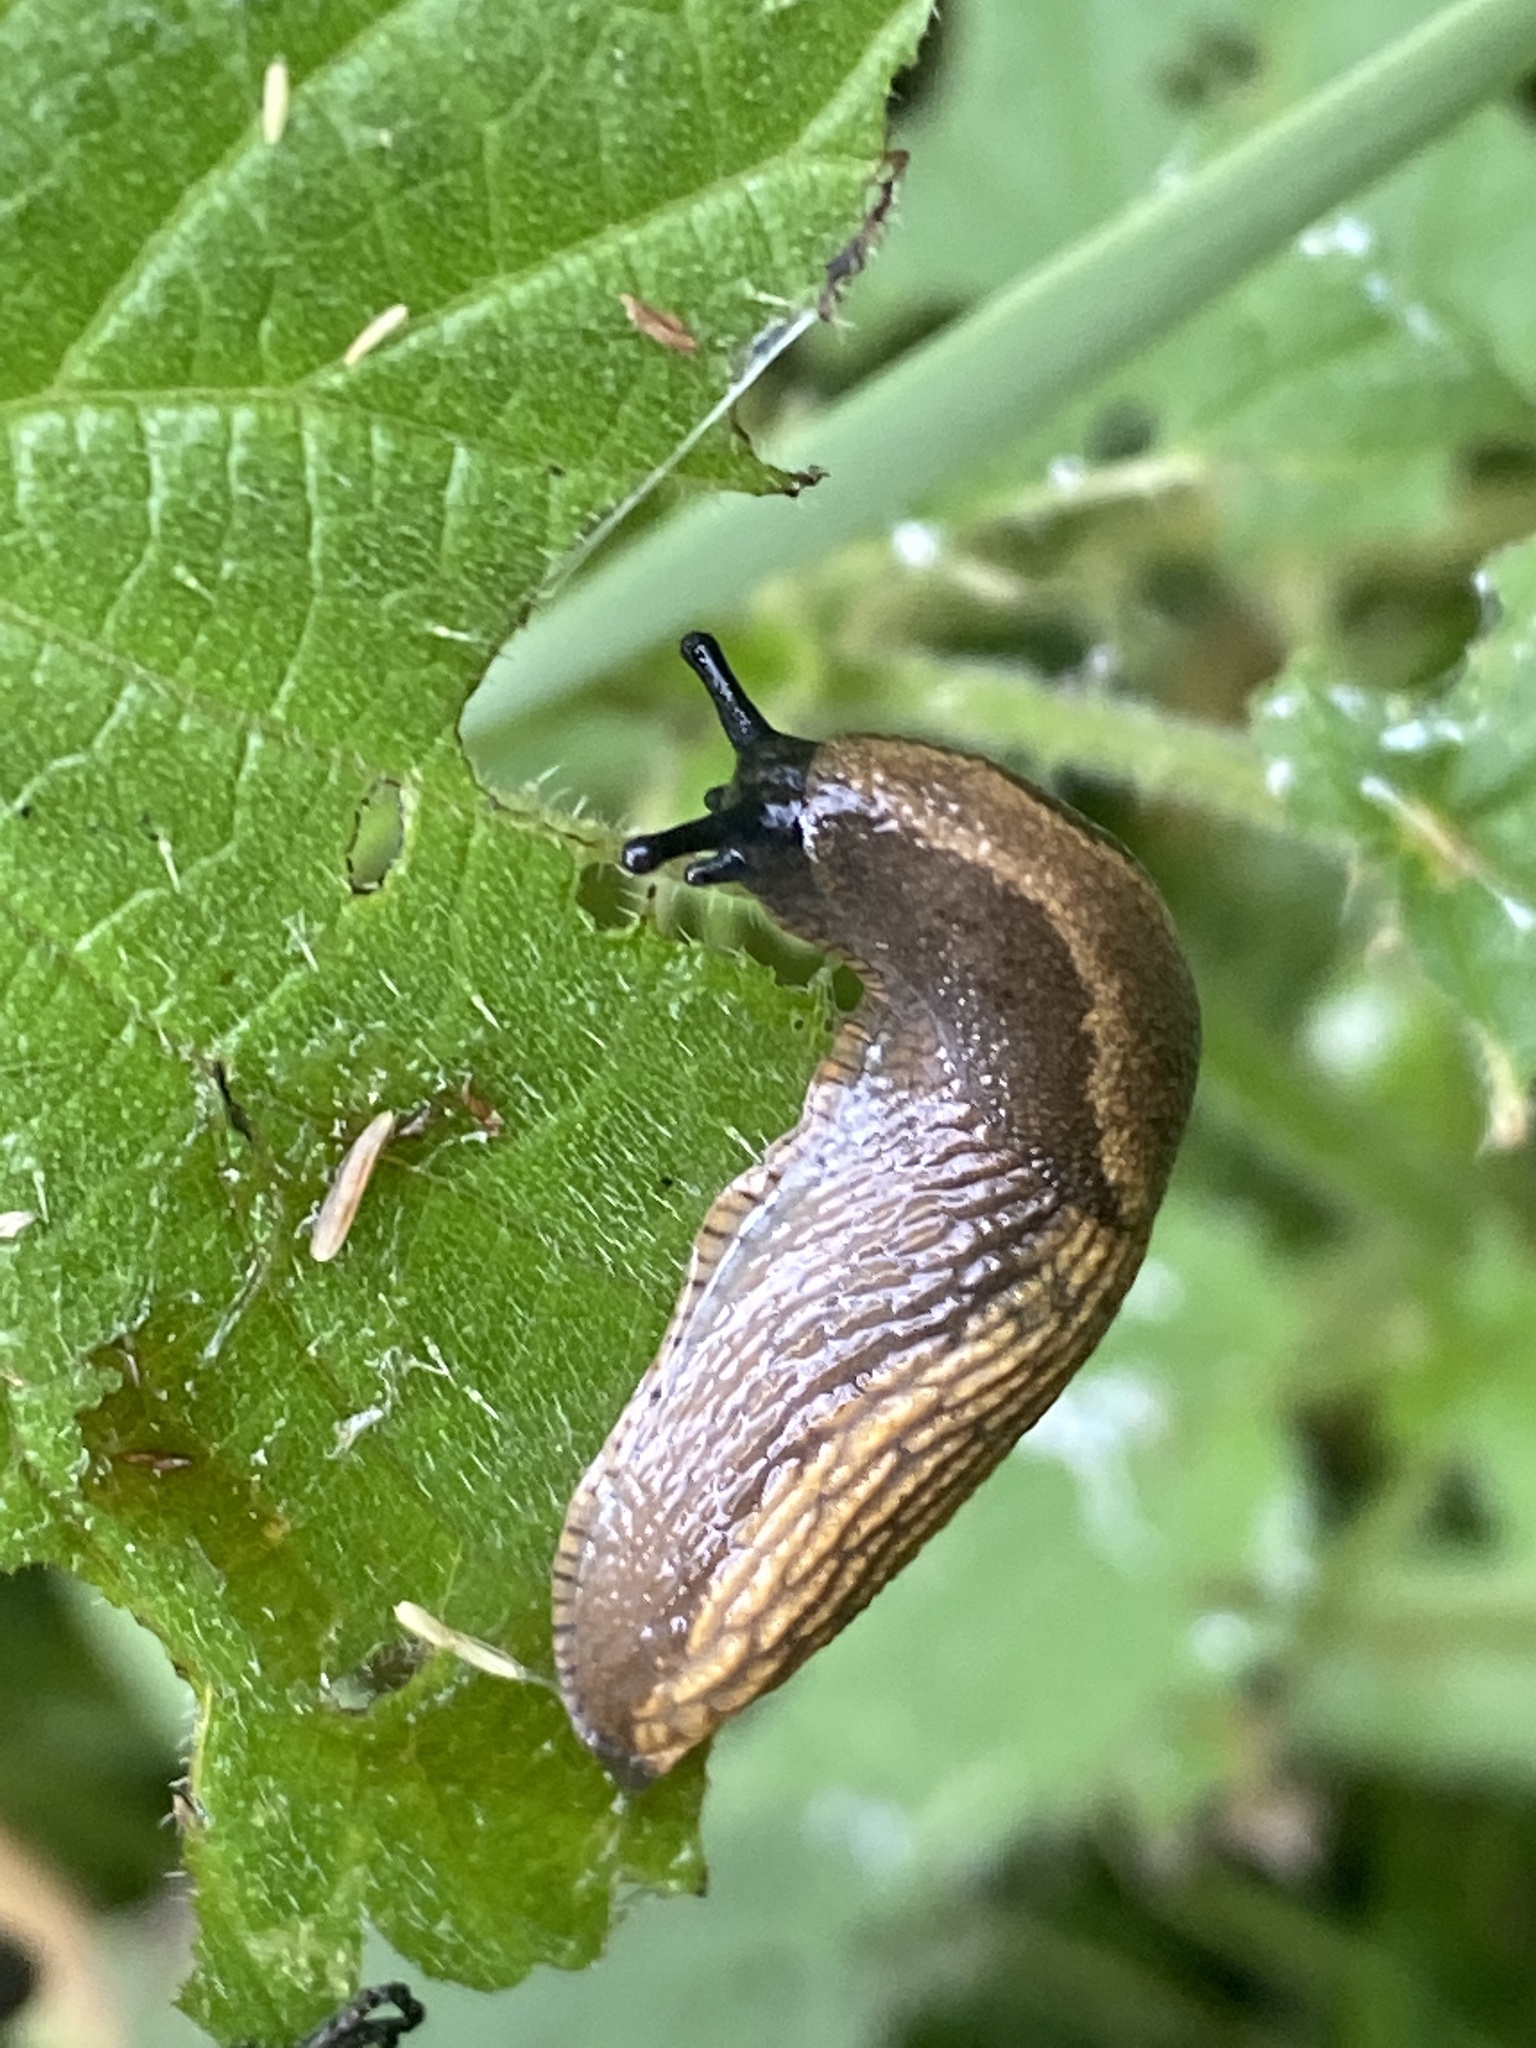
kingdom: Animalia
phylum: Mollusca
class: Gastropoda
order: Stylommatophora
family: Arionidae
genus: Arion
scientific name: Arion vulgaris
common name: Lusitanian slug
